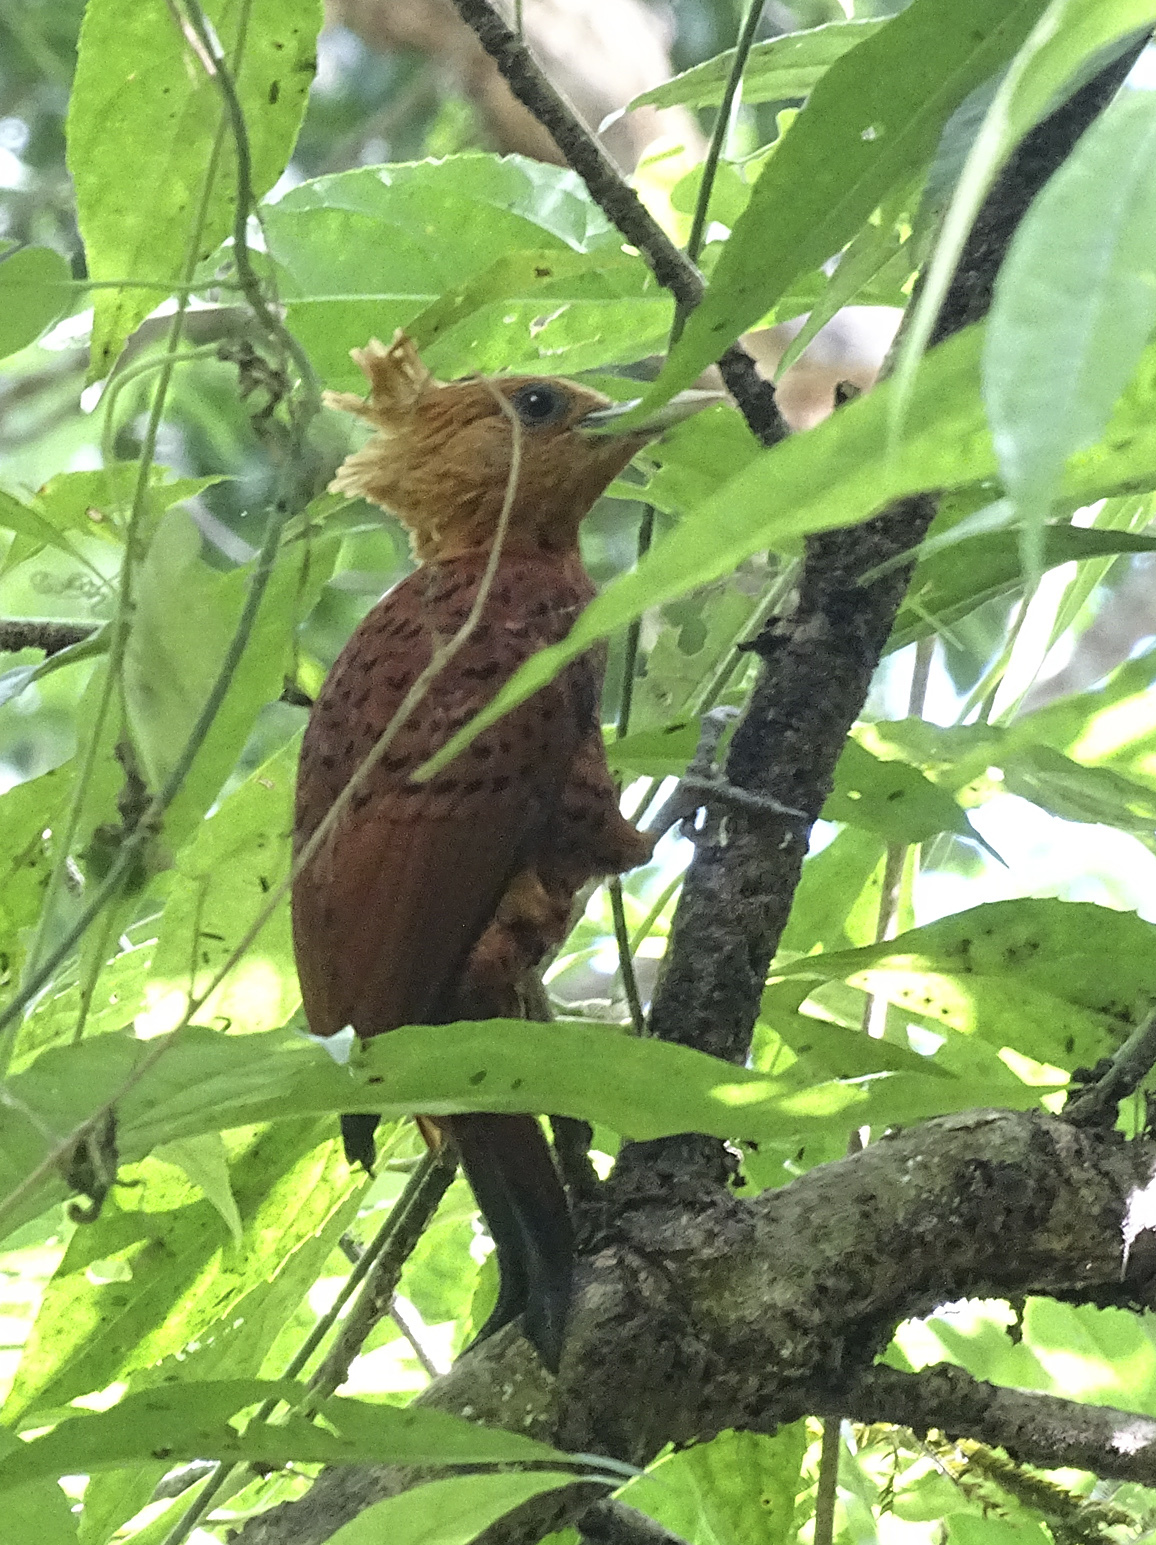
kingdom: Animalia
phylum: Chordata
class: Aves
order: Piciformes
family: Picidae
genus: Celeus
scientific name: Celeus castaneus
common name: Chestnut-colored woodpecker
